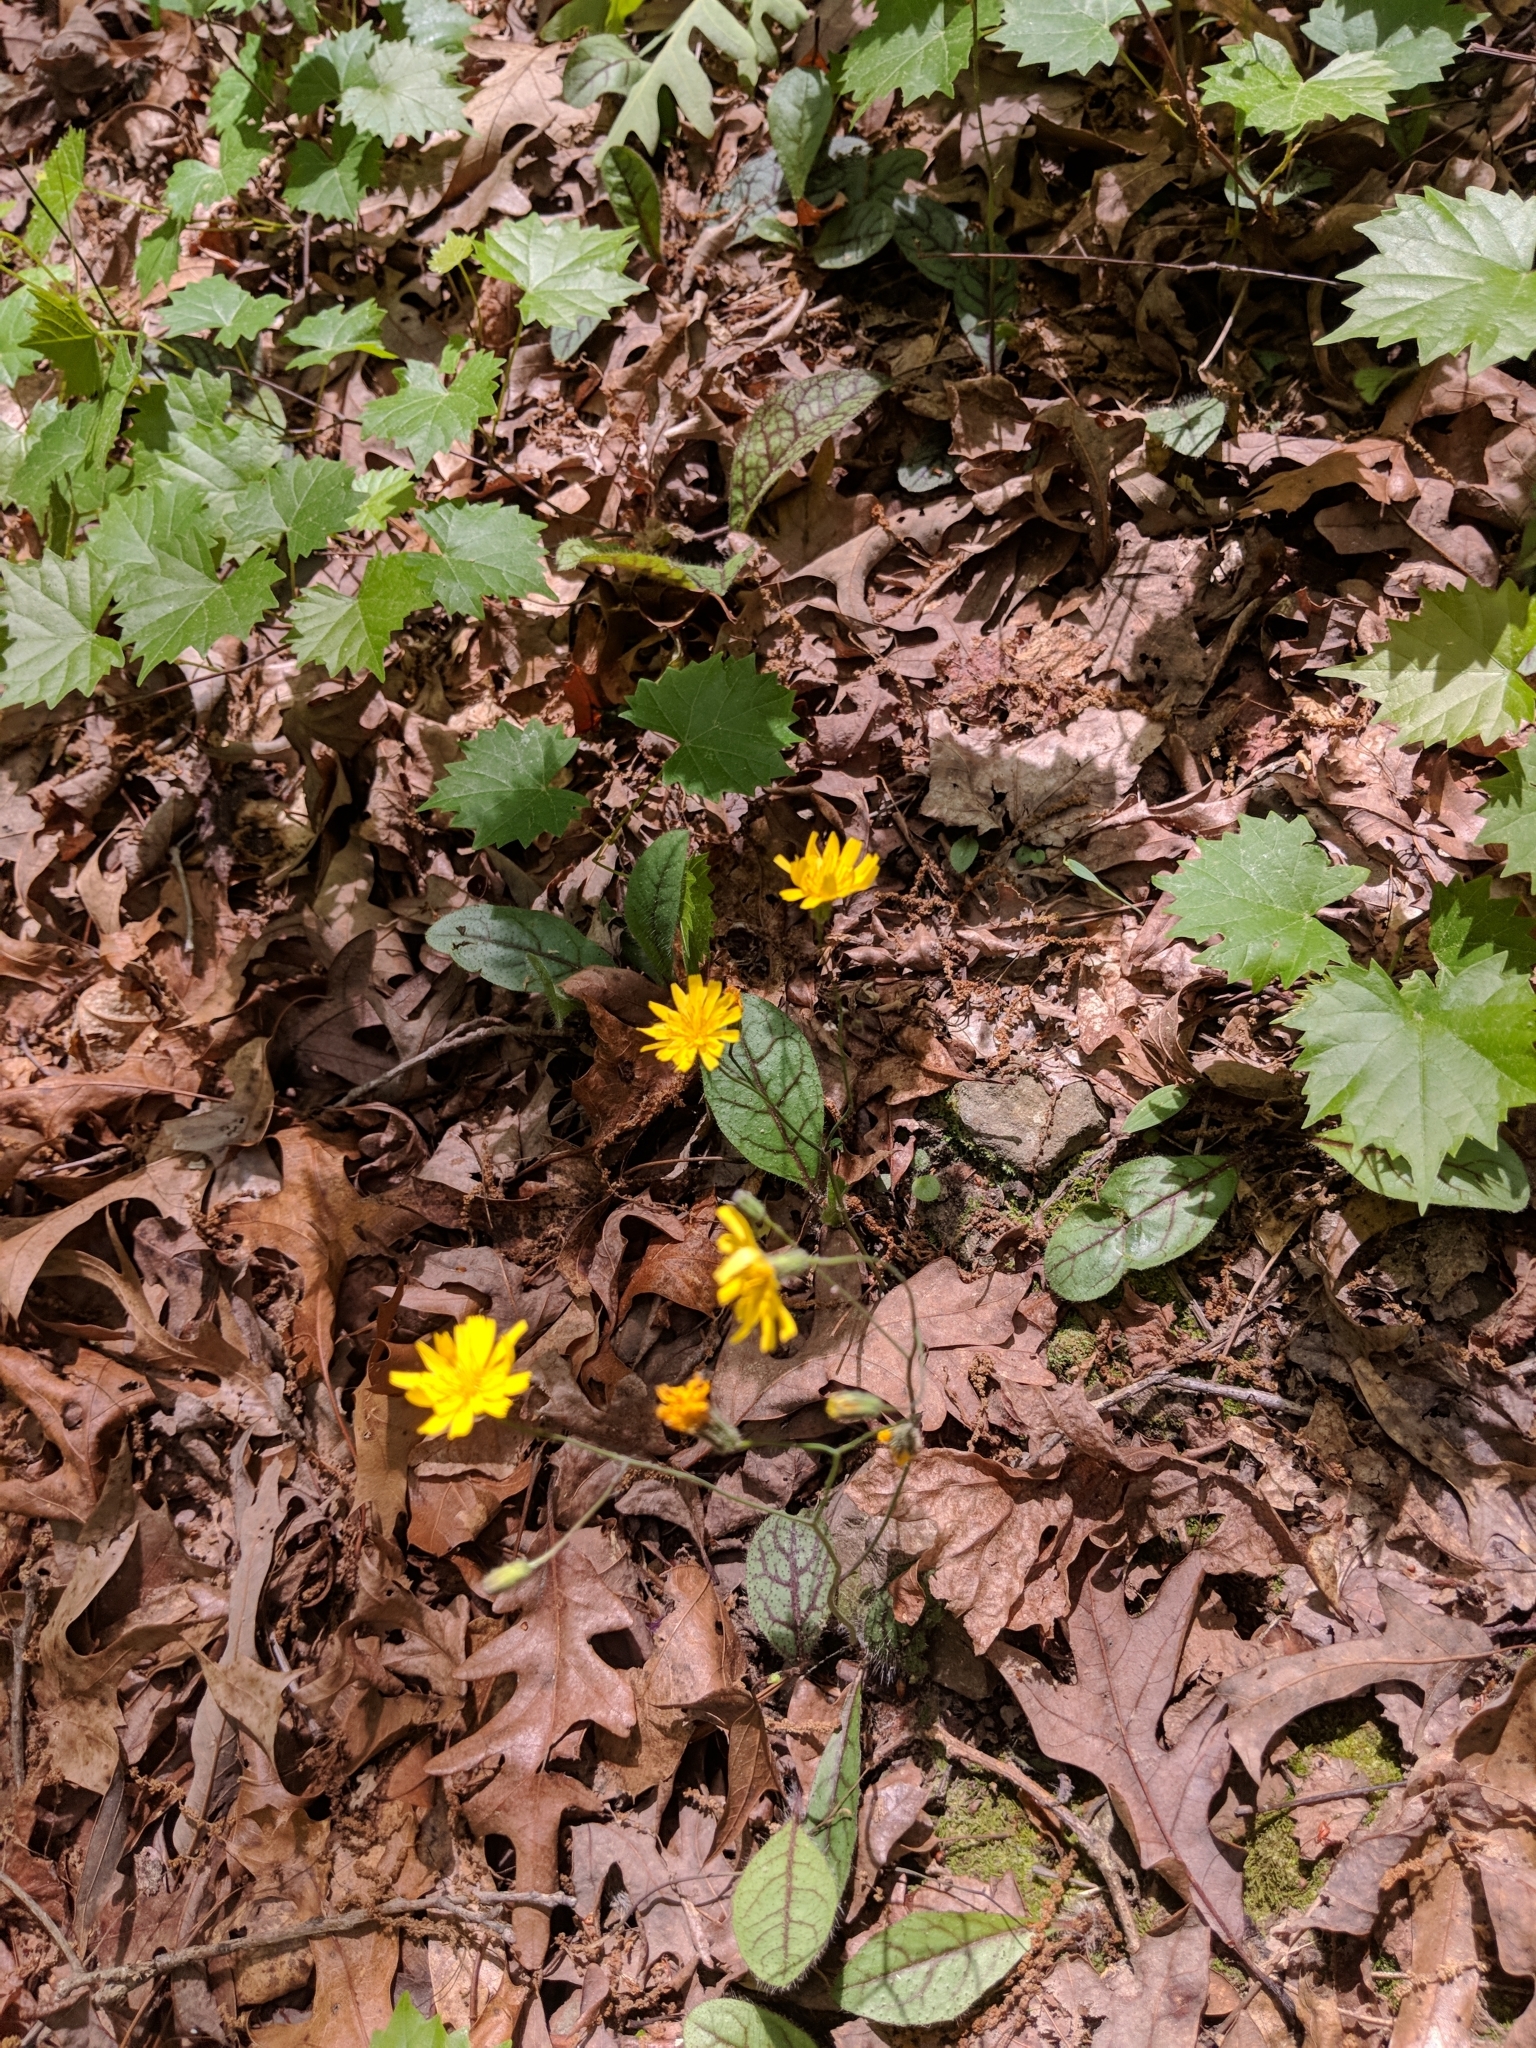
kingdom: Plantae
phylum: Tracheophyta
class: Magnoliopsida
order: Asterales
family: Asteraceae
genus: Hieracium
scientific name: Hieracium venosum
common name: Rattlesnake hawkweed
